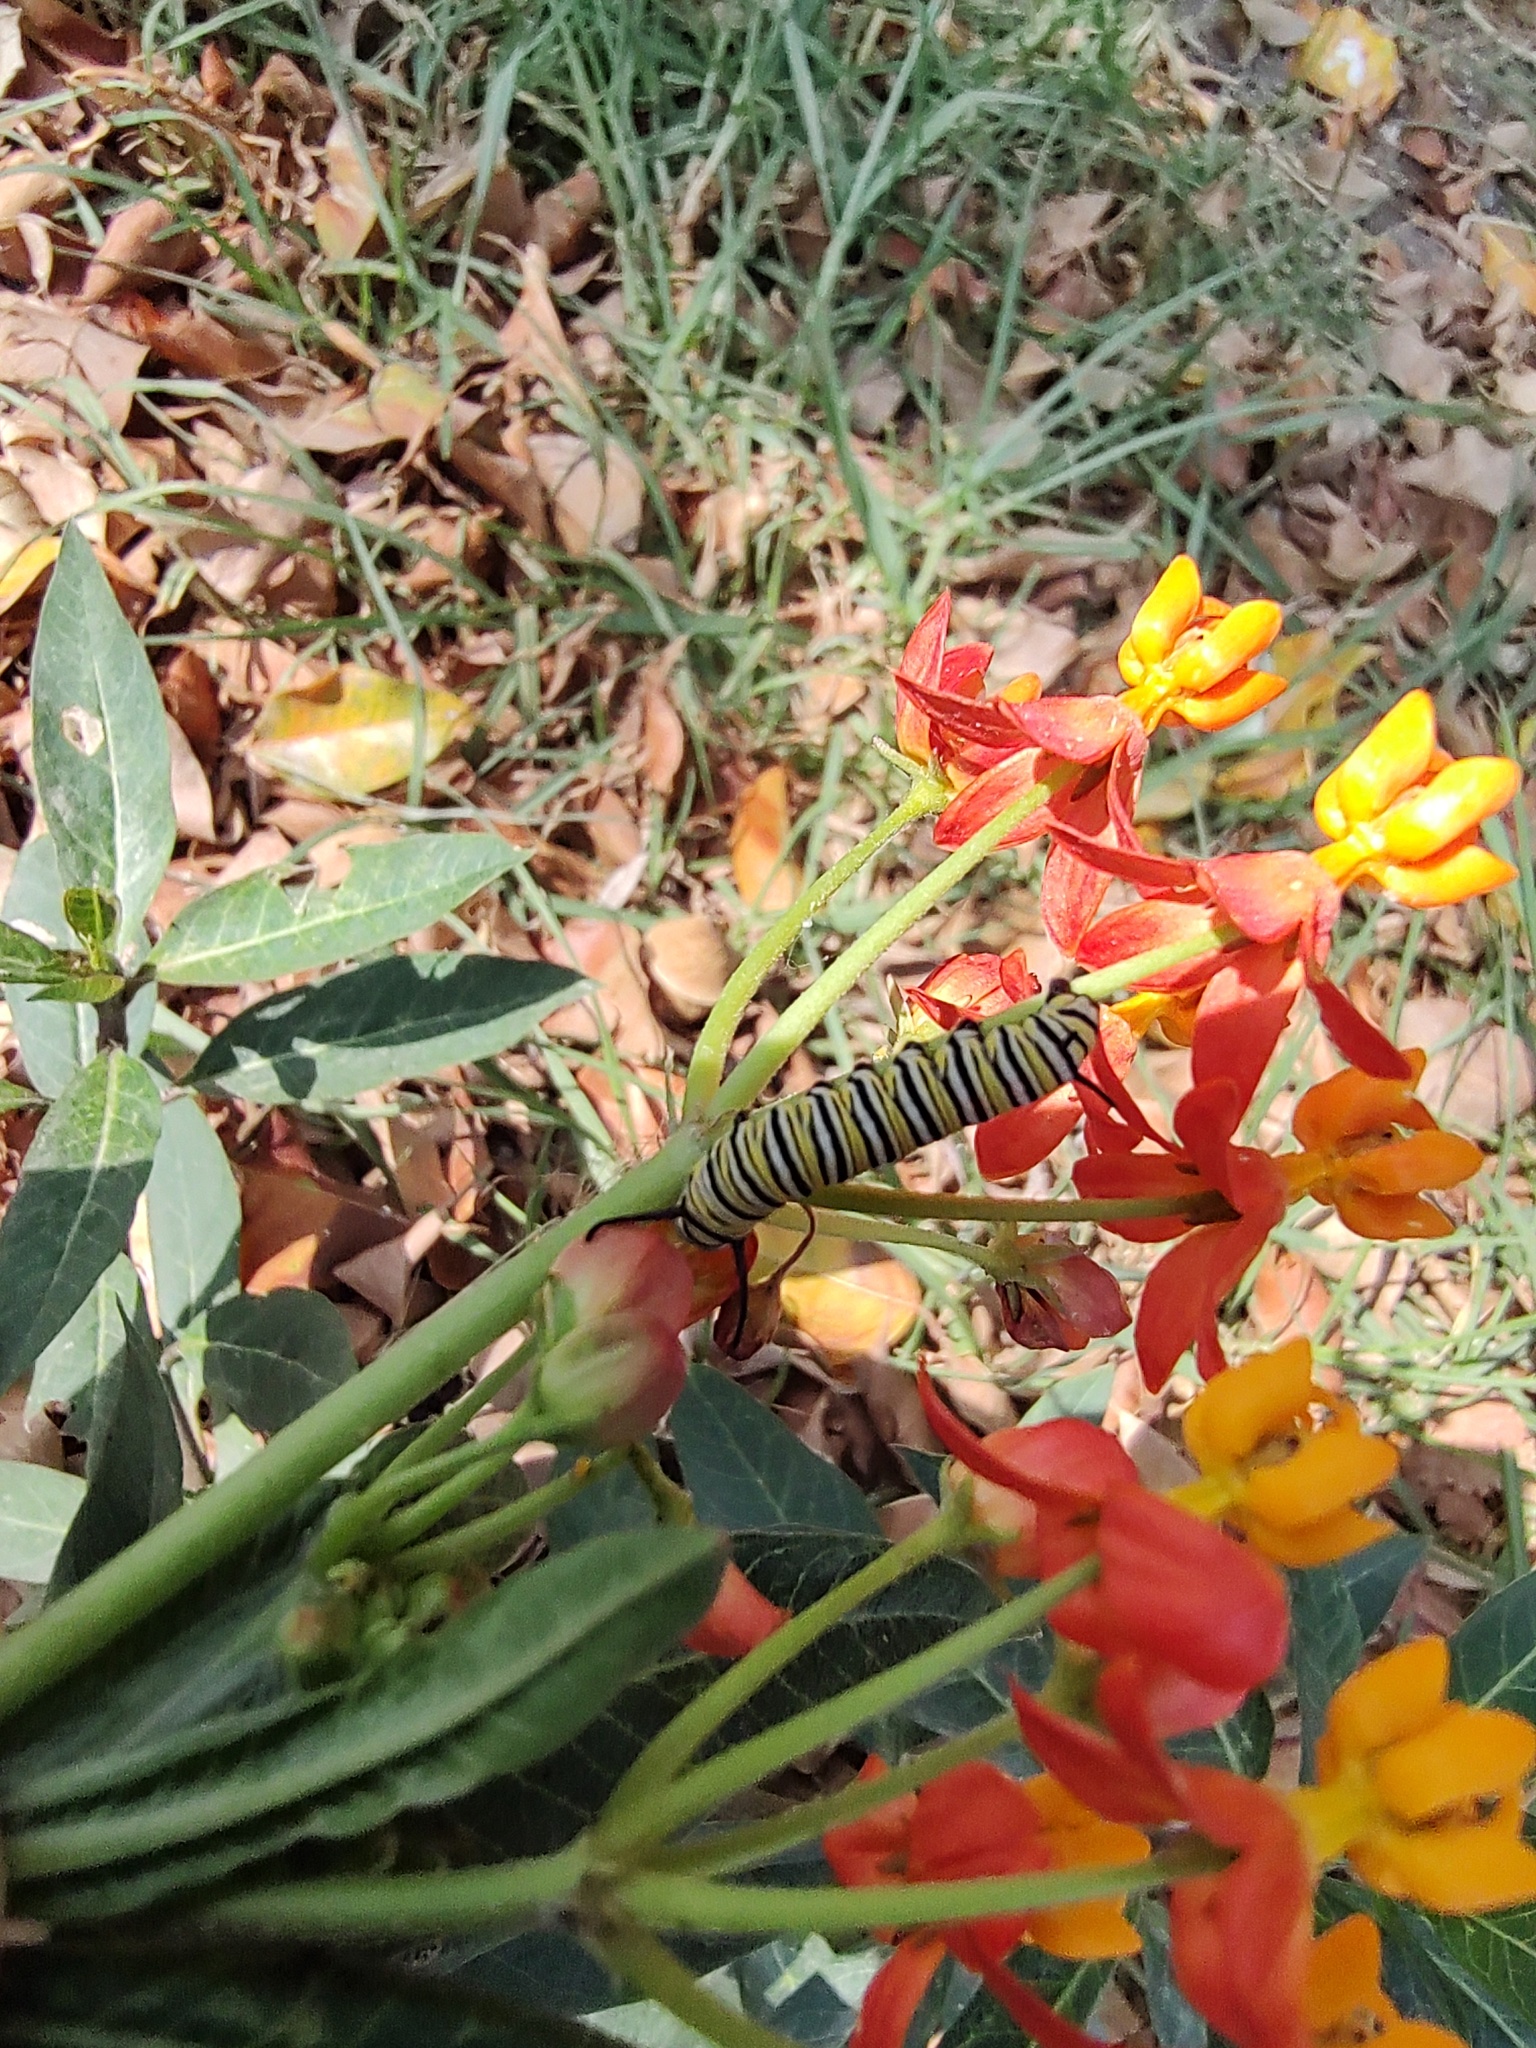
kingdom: Plantae
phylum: Tracheophyta
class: Magnoliopsida
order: Gentianales
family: Apocynaceae
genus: Asclepias
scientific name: Asclepias curassavica
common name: Bloodflower
